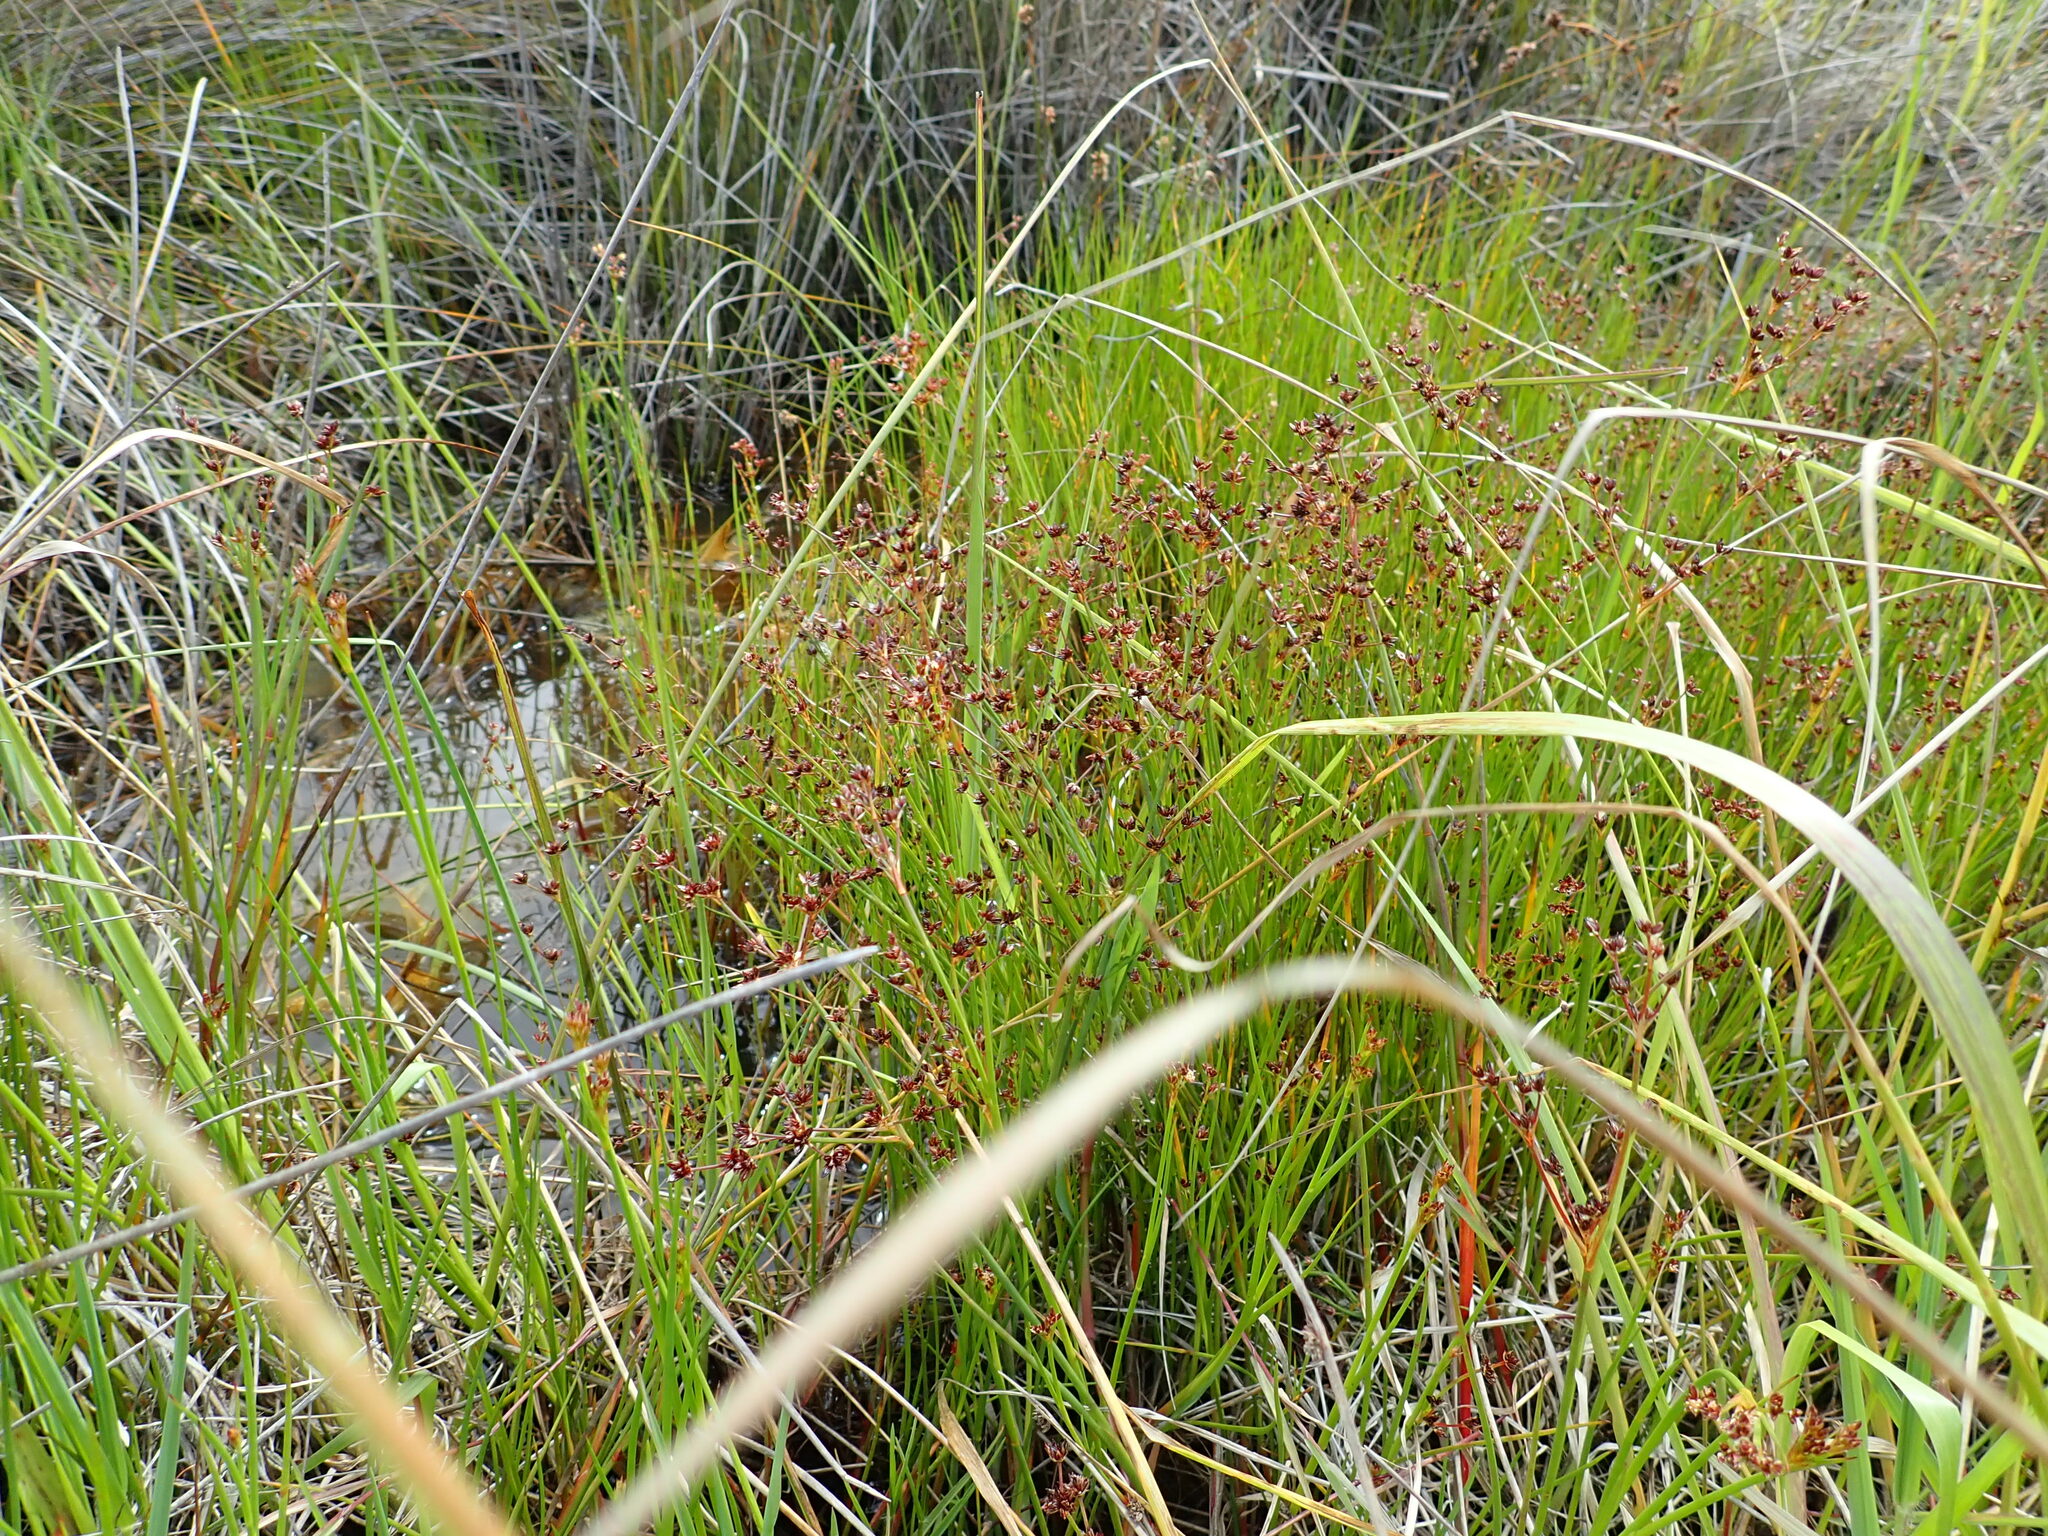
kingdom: Plantae
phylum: Tracheophyta
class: Liliopsida
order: Poales
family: Juncaceae
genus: Juncus
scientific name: Juncus articulatus
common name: Jointed rush
